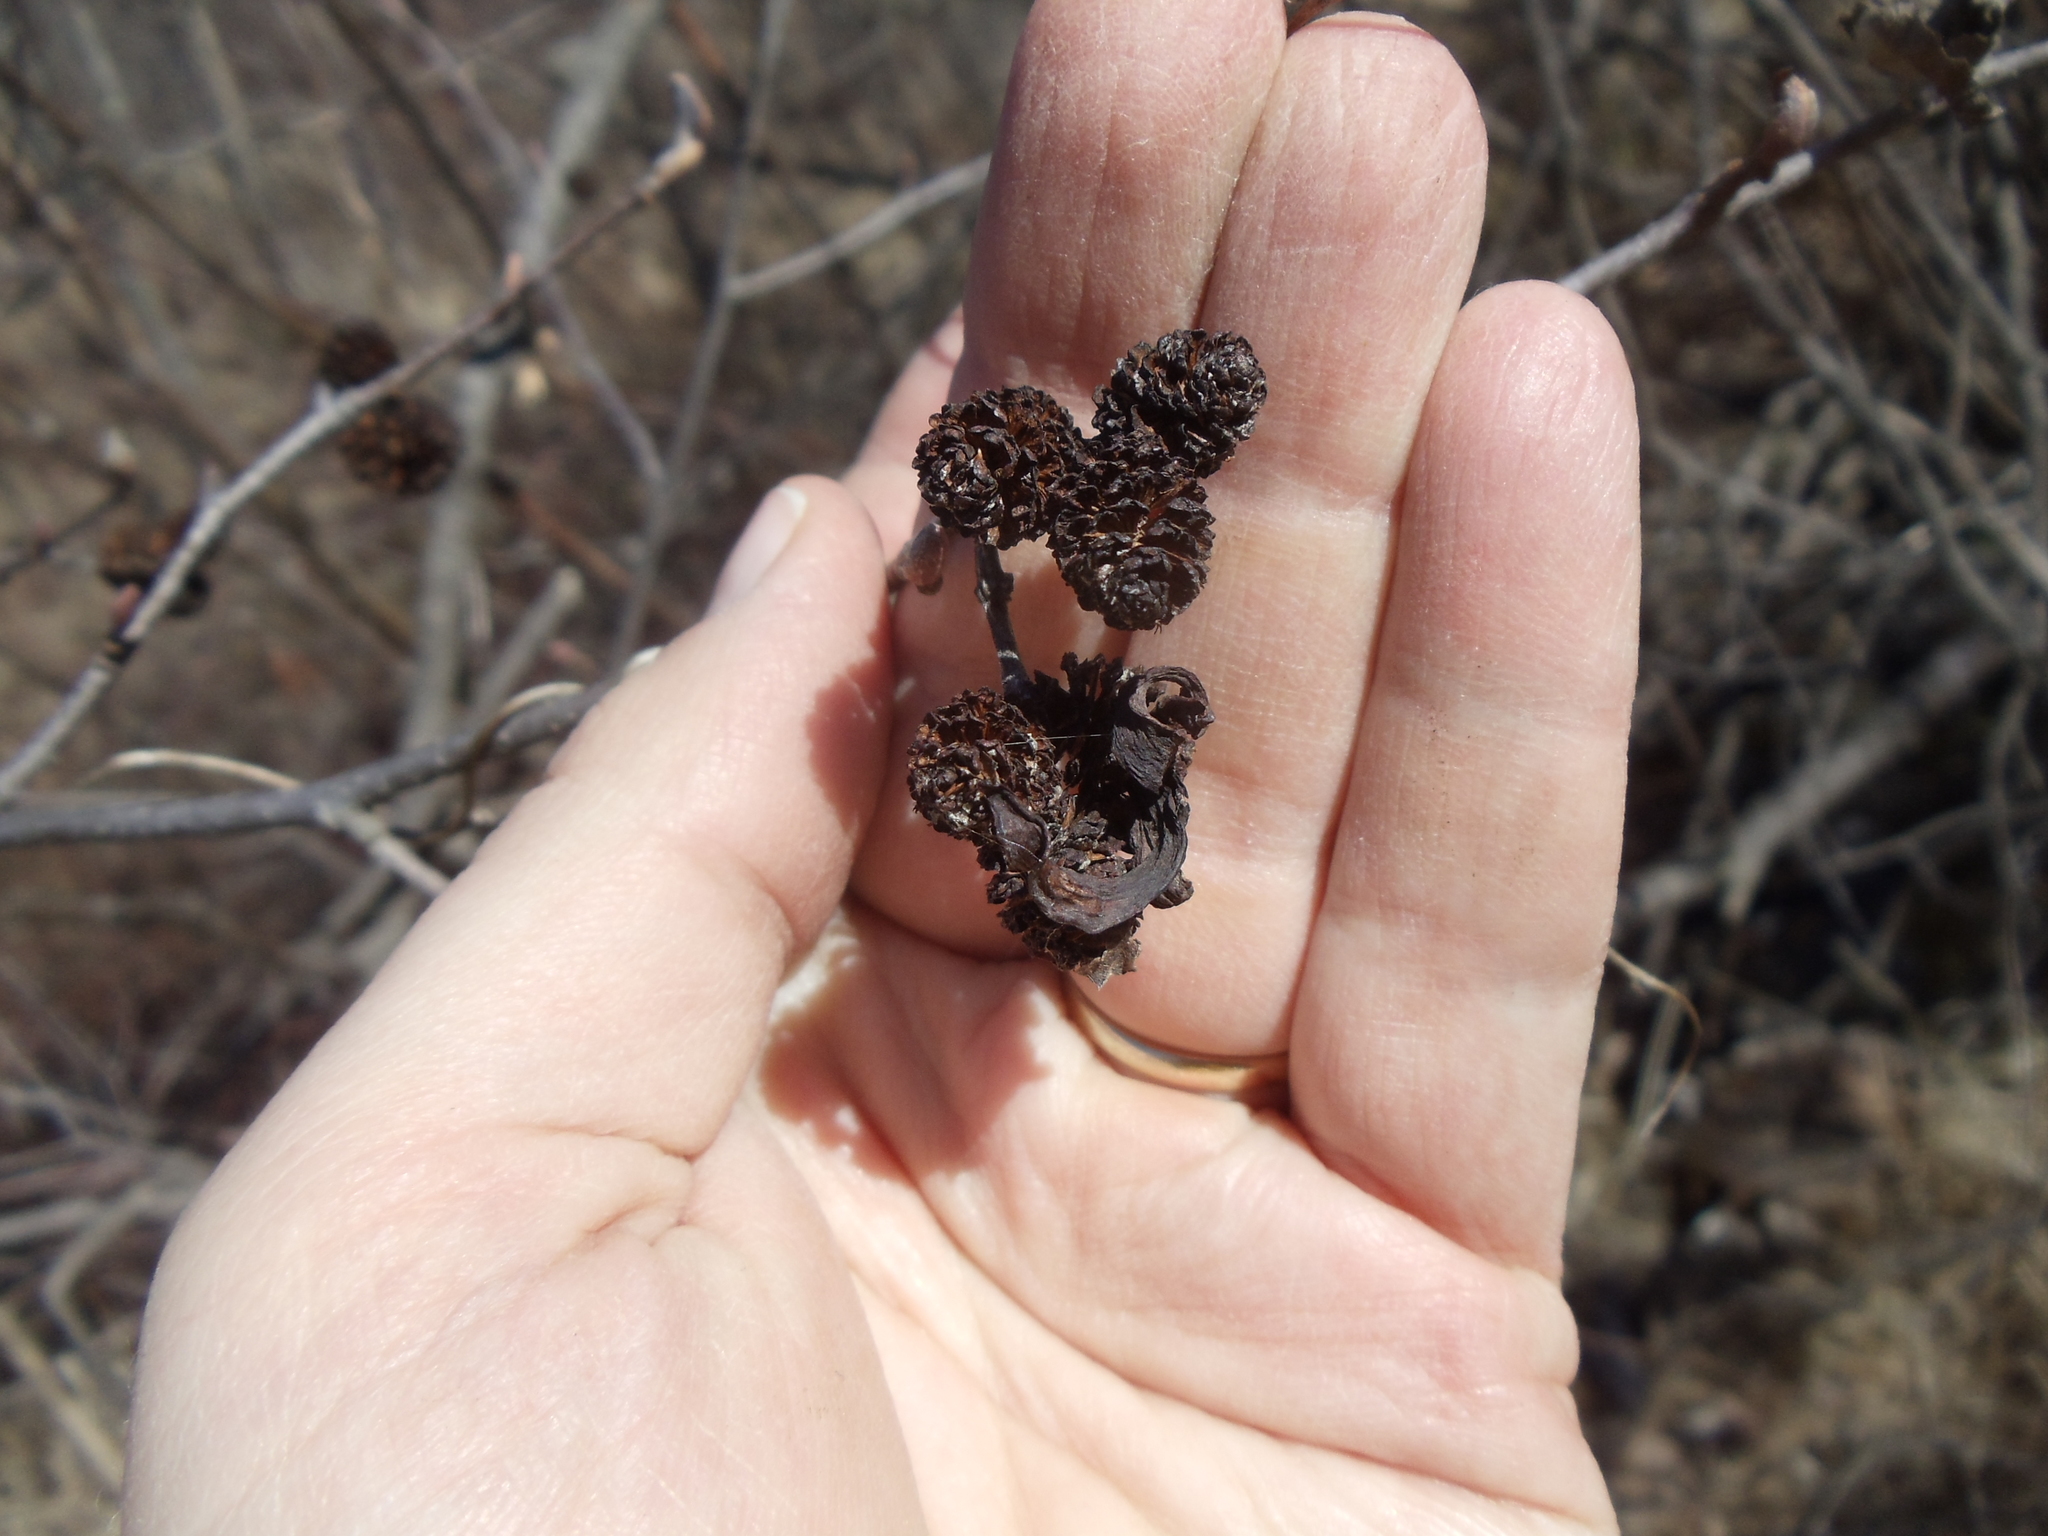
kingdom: Fungi
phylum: Ascomycota
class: Taphrinomycetes
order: Taphrinales
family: Taphrinaceae
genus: Taphrina
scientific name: Taphrina robinsoniana
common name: Eastern american alder tongue gall fungus
